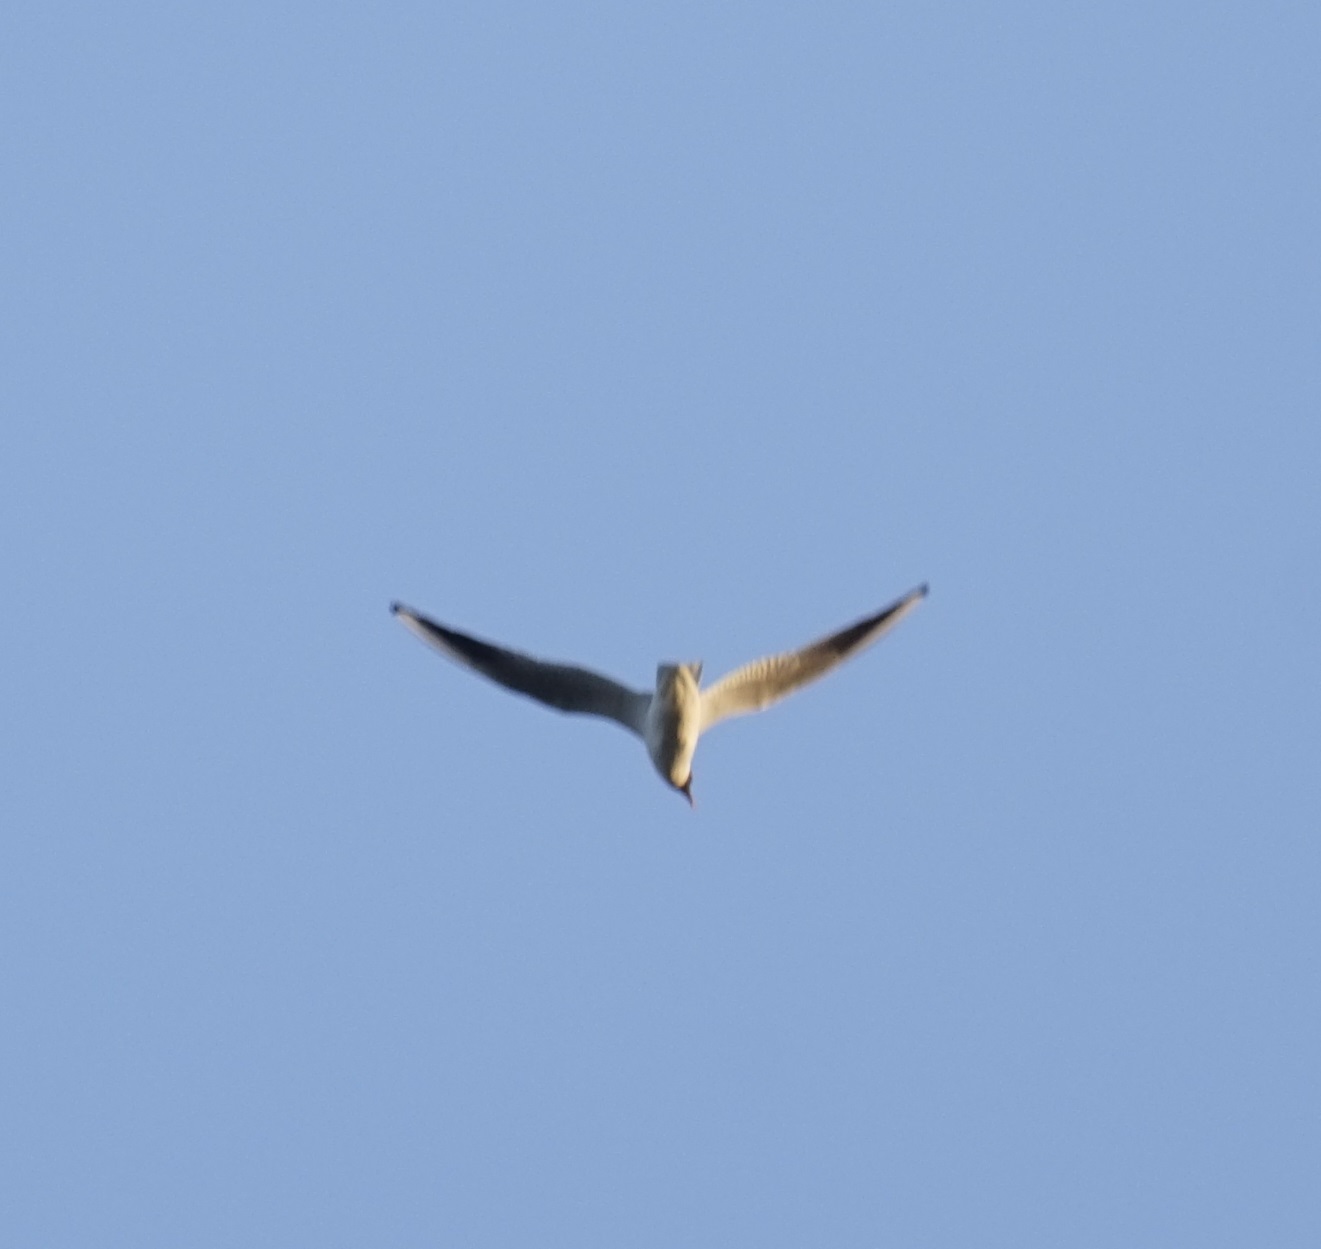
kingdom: Animalia
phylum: Chordata
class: Aves
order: Charadriiformes
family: Laridae
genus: Chroicocephalus
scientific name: Chroicocephalus ridibundus
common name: Black-headed gull
